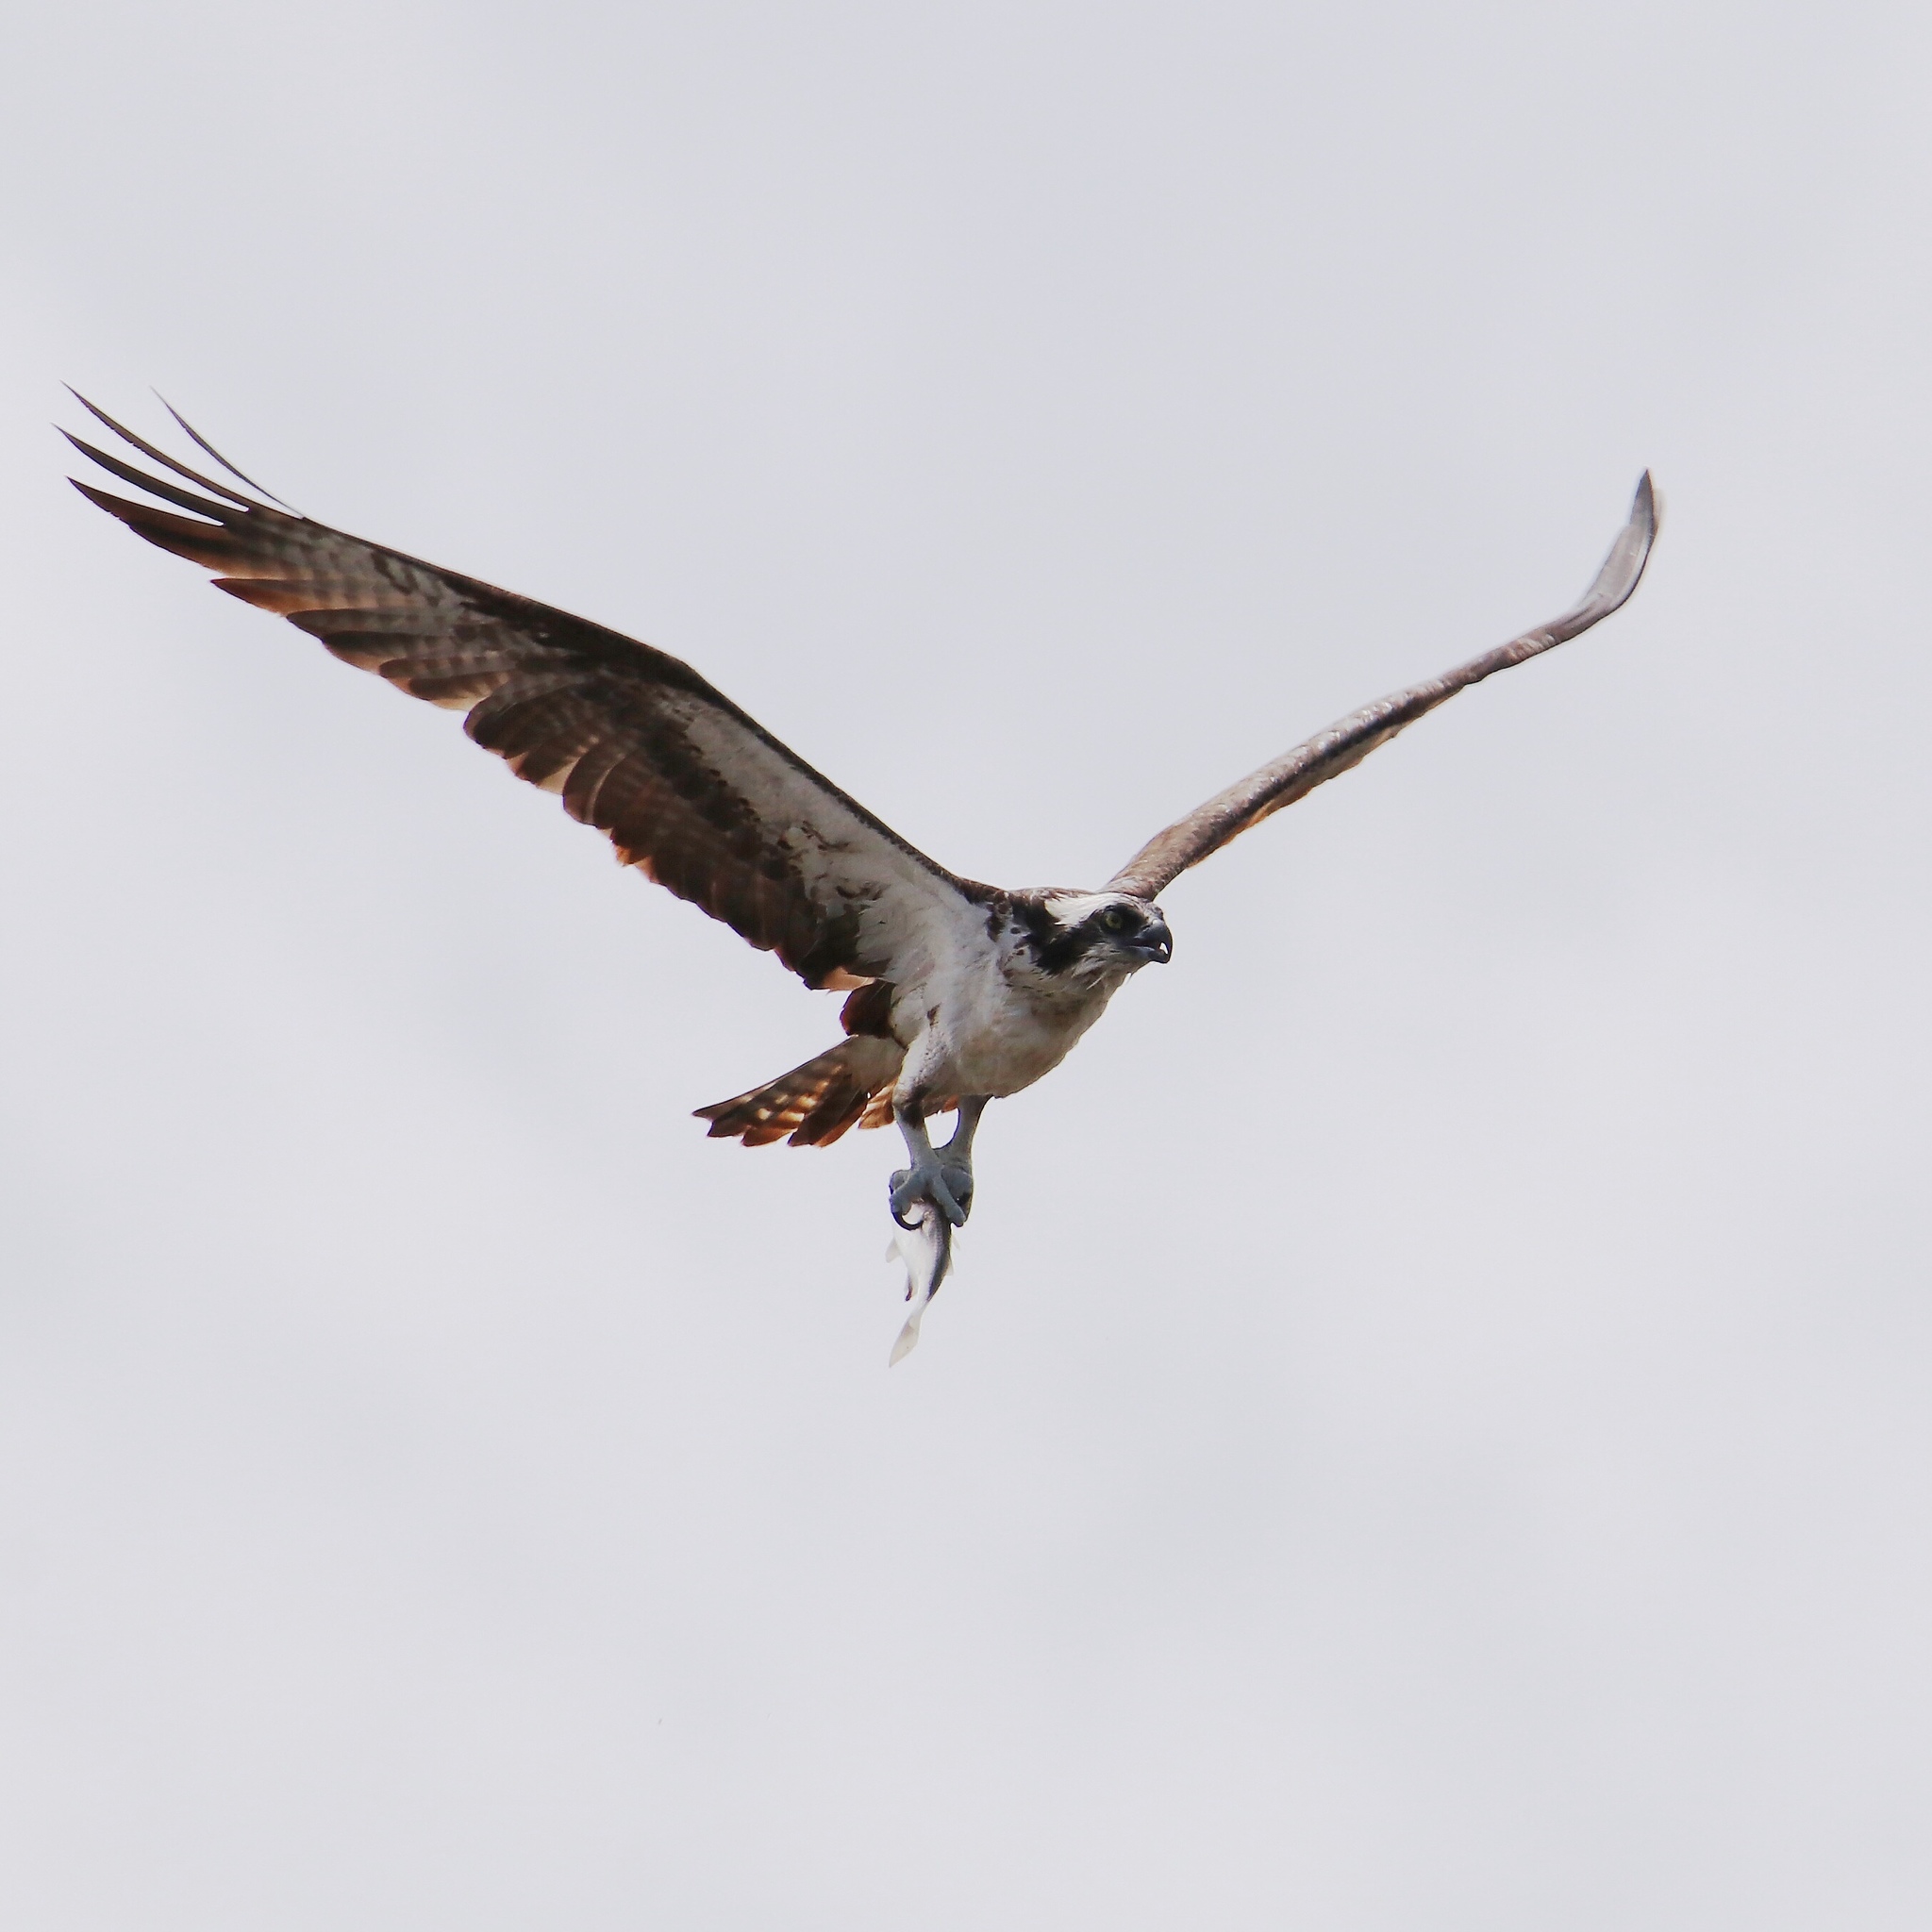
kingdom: Animalia
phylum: Chordata
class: Aves
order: Accipitriformes
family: Pandionidae
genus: Pandion
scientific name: Pandion haliaetus
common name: Osprey
